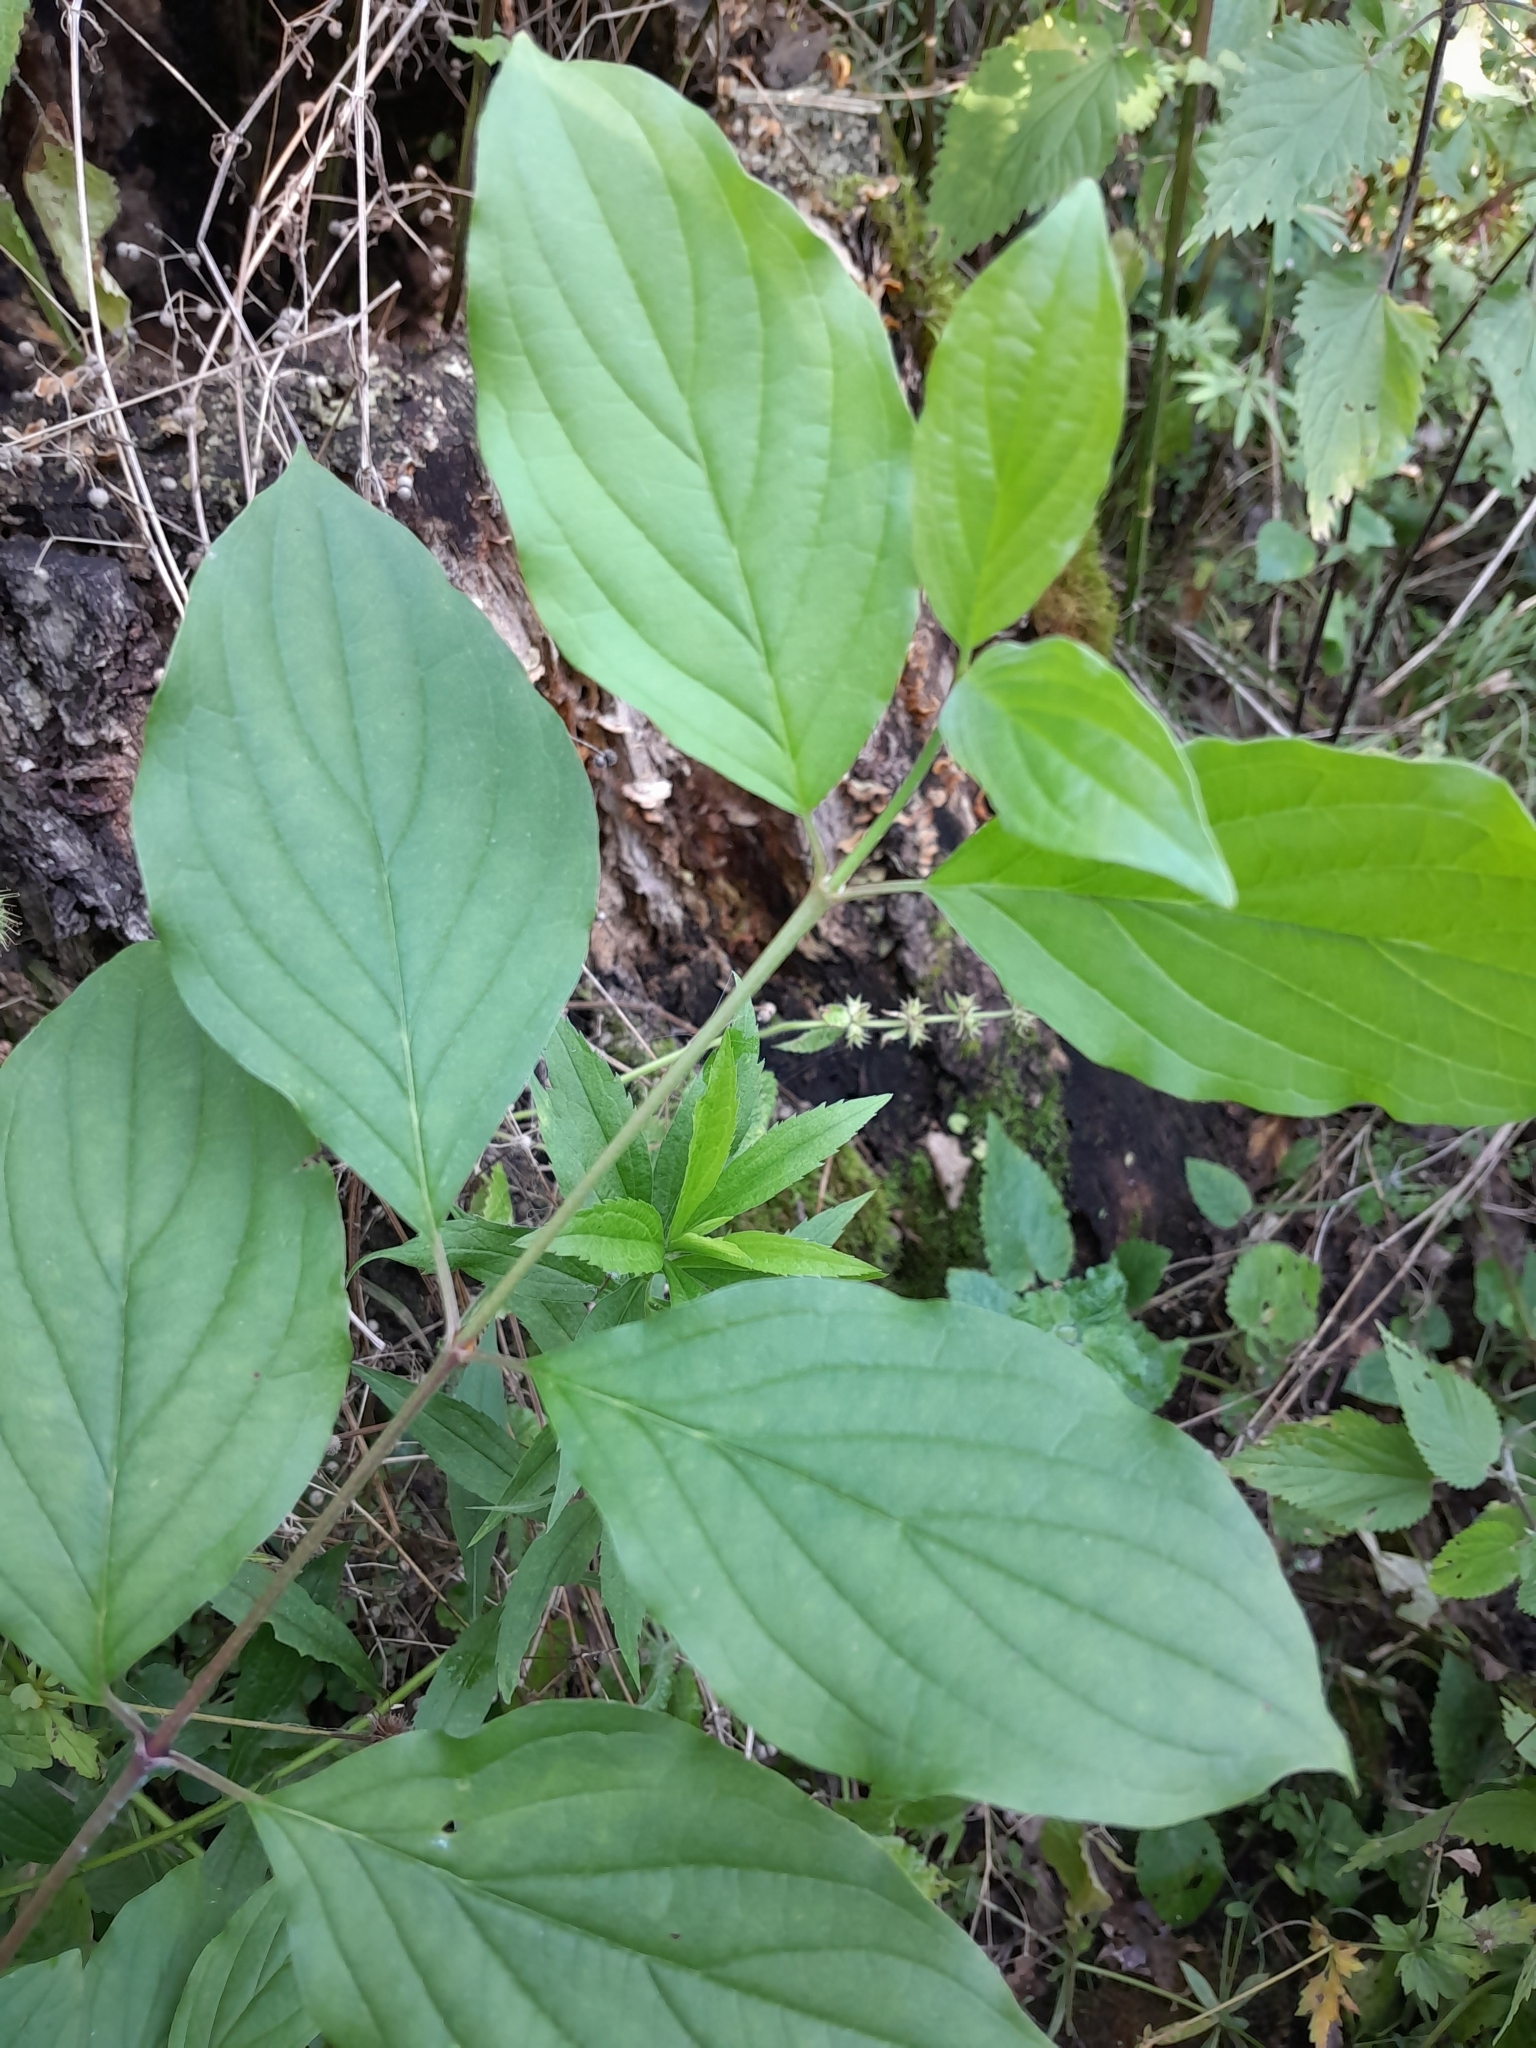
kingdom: Plantae
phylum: Tracheophyta
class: Magnoliopsida
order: Cornales
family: Cornaceae
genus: Cornus
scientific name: Cornus sanguinea
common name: Dogwood
